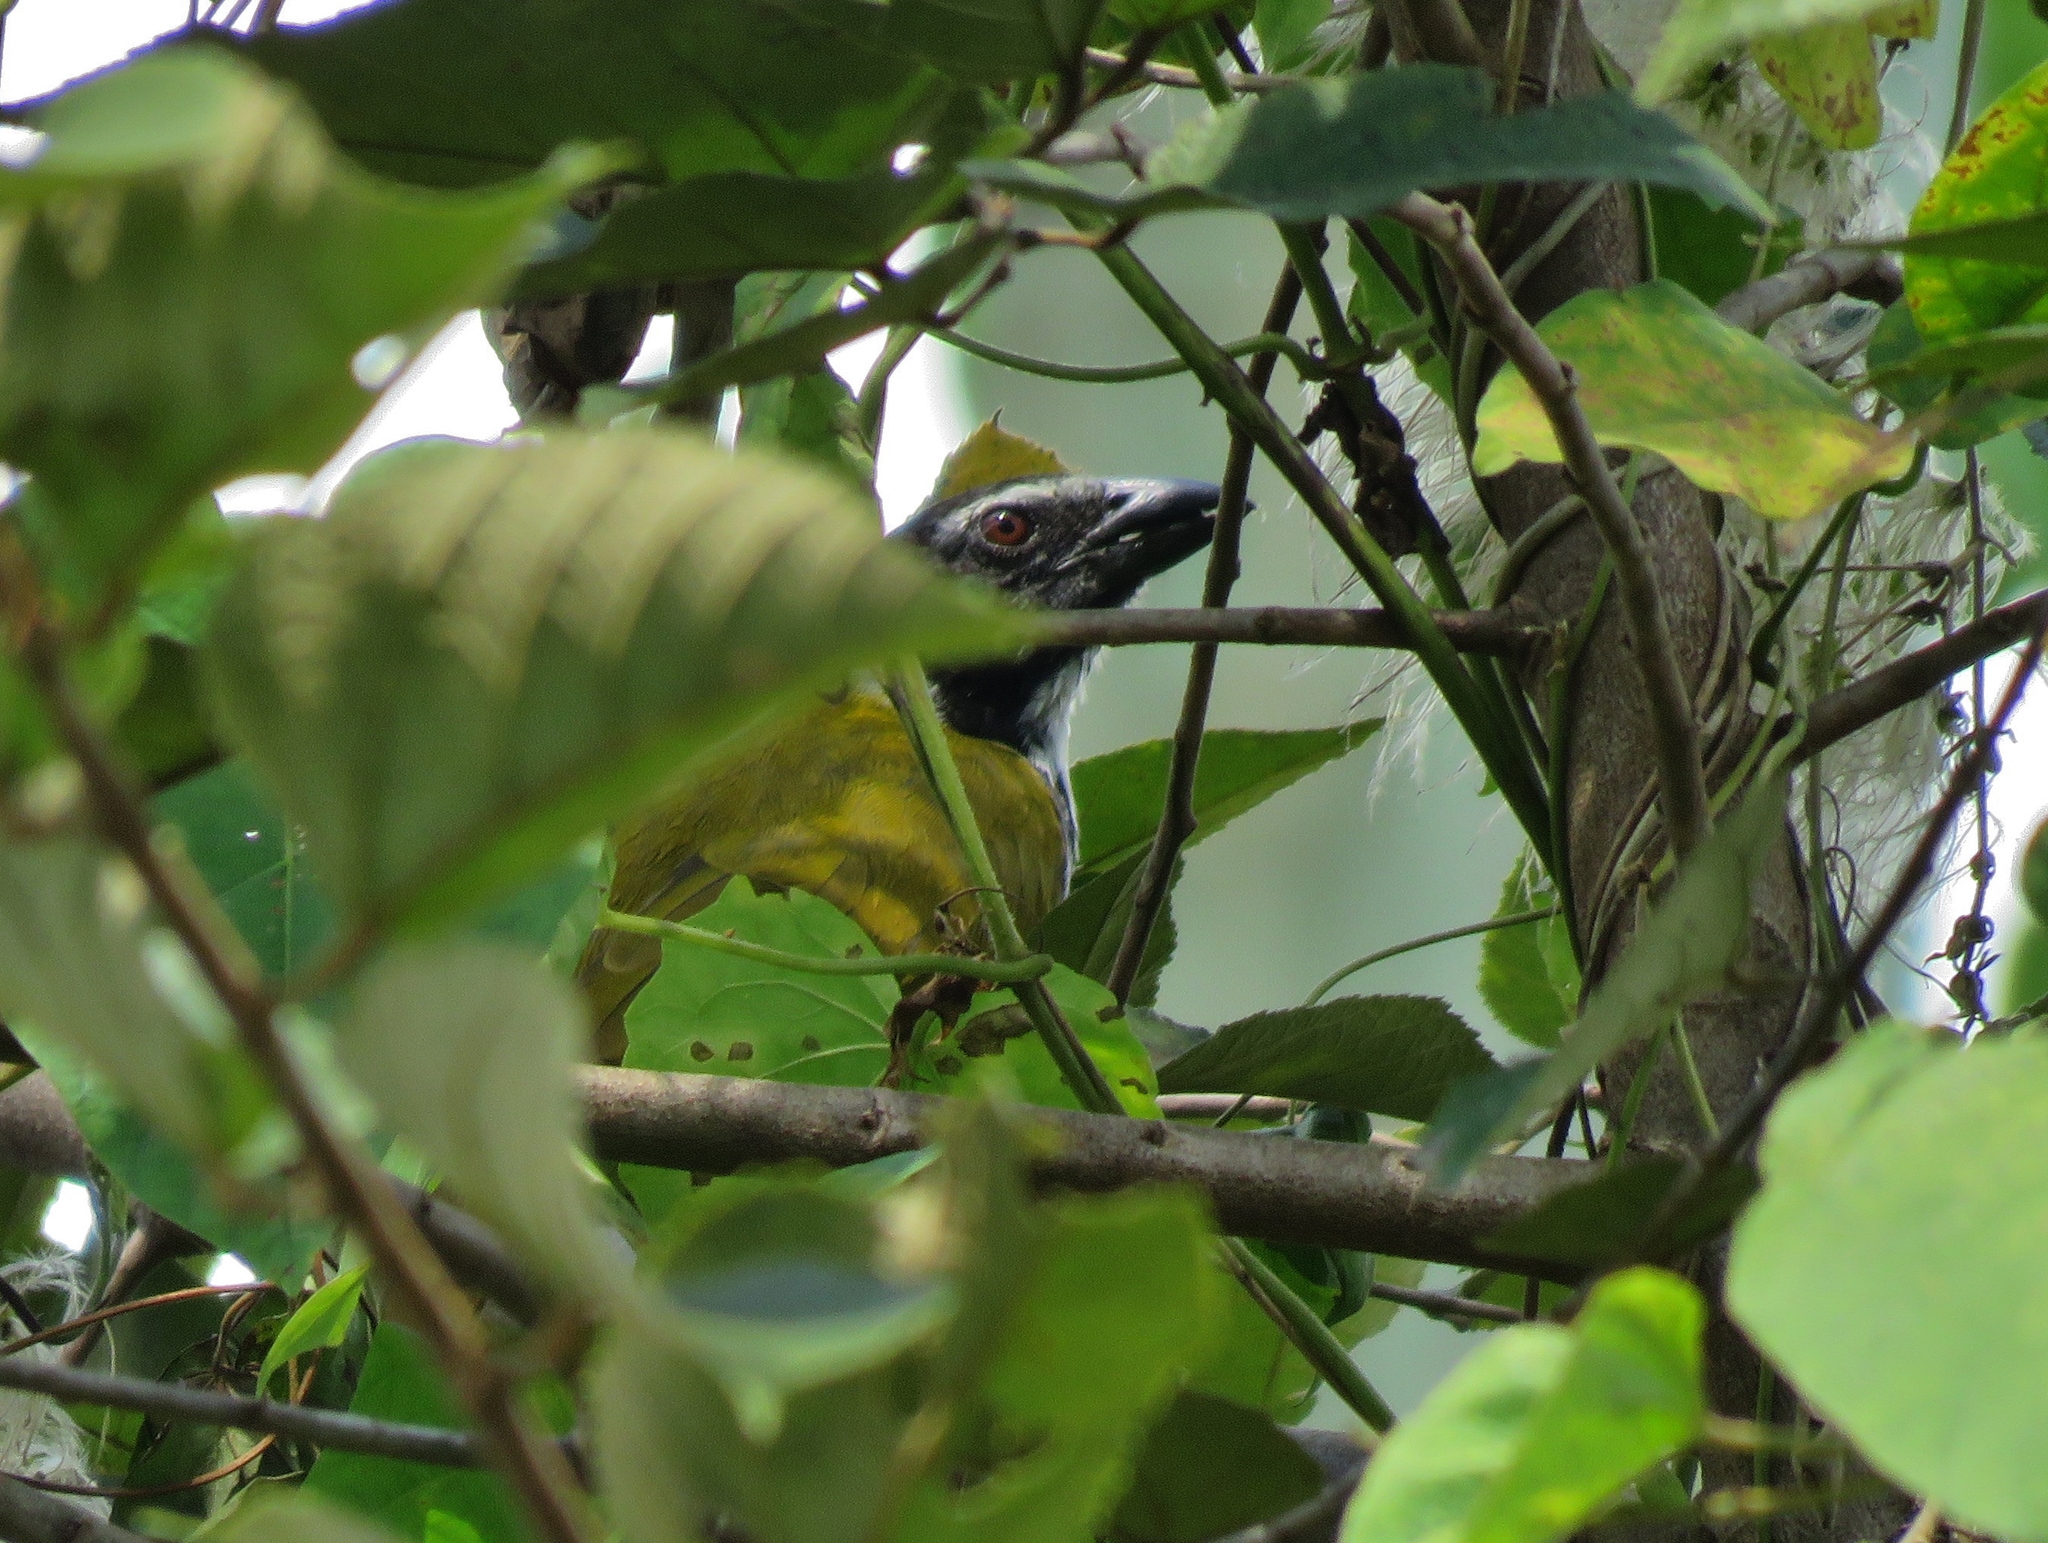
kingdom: Animalia
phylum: Chordata
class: Aves
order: Passeriformes
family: Thraupidae
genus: Saltator
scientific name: Saltator atriceps
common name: Black-headed saltator
